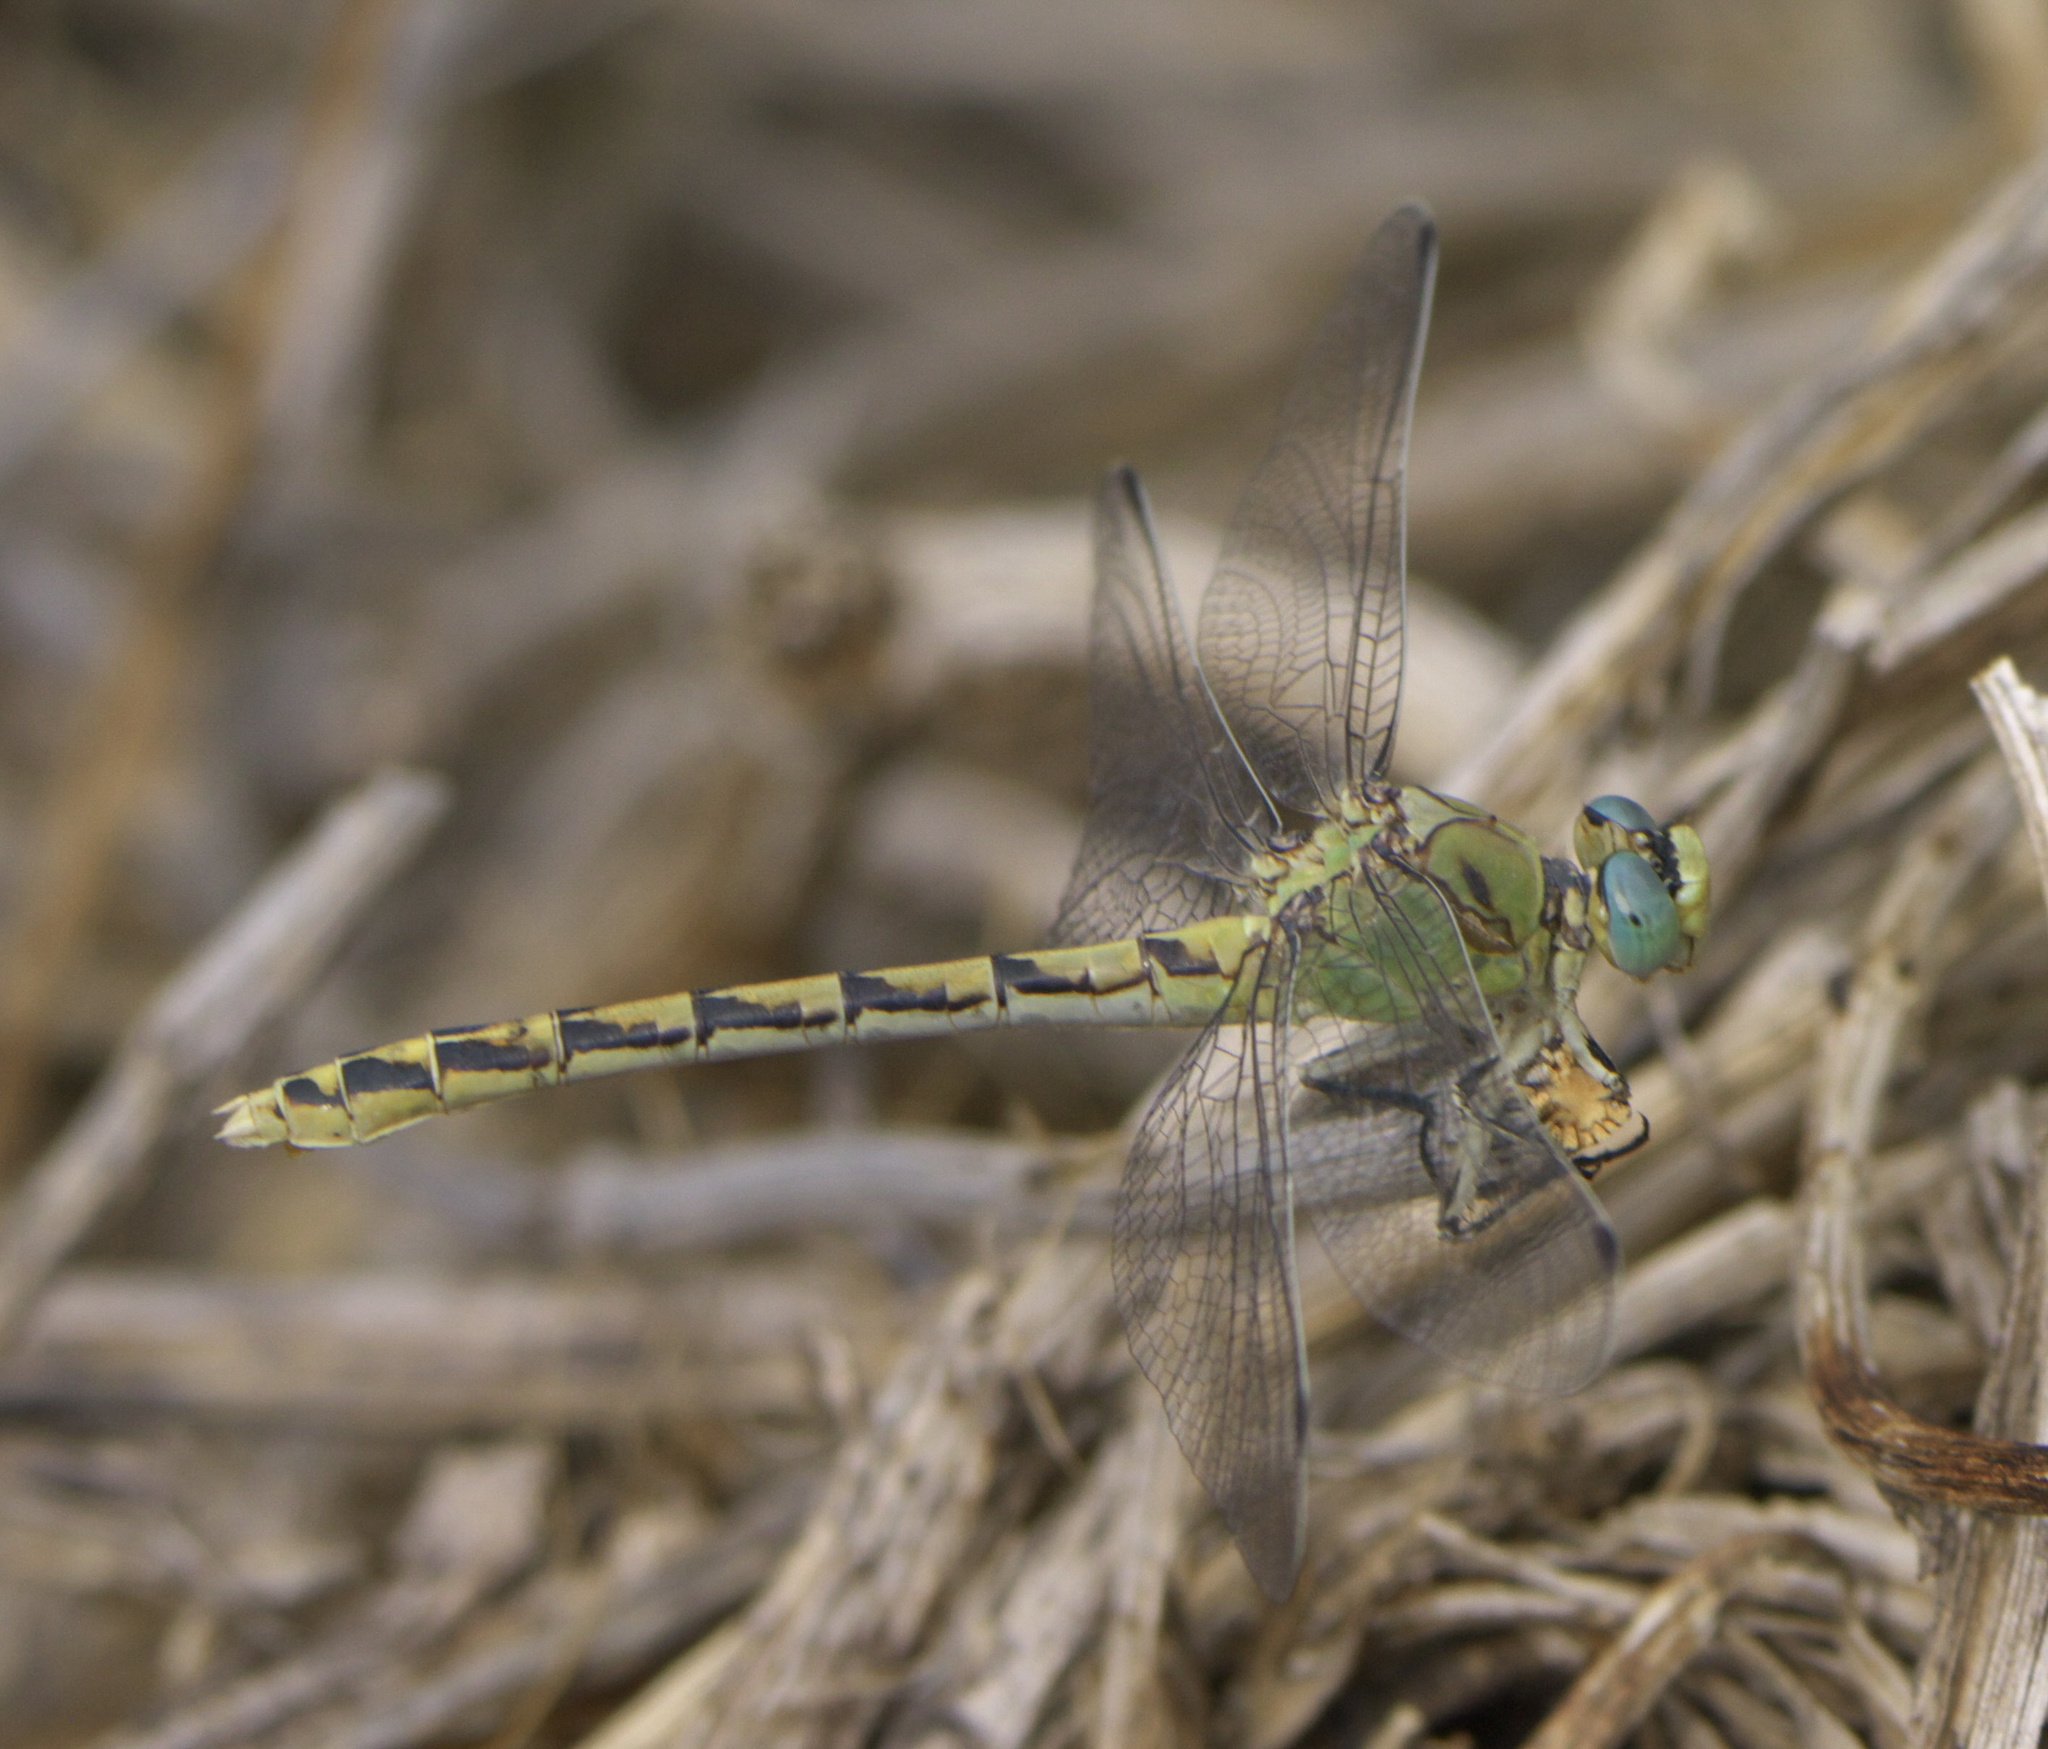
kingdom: Animalia
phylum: Arthropoda
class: Insecta
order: Odonata
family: Gomphidae
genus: Ophiogomphus
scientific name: Ophiogomphus severus
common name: Pale snaketail
